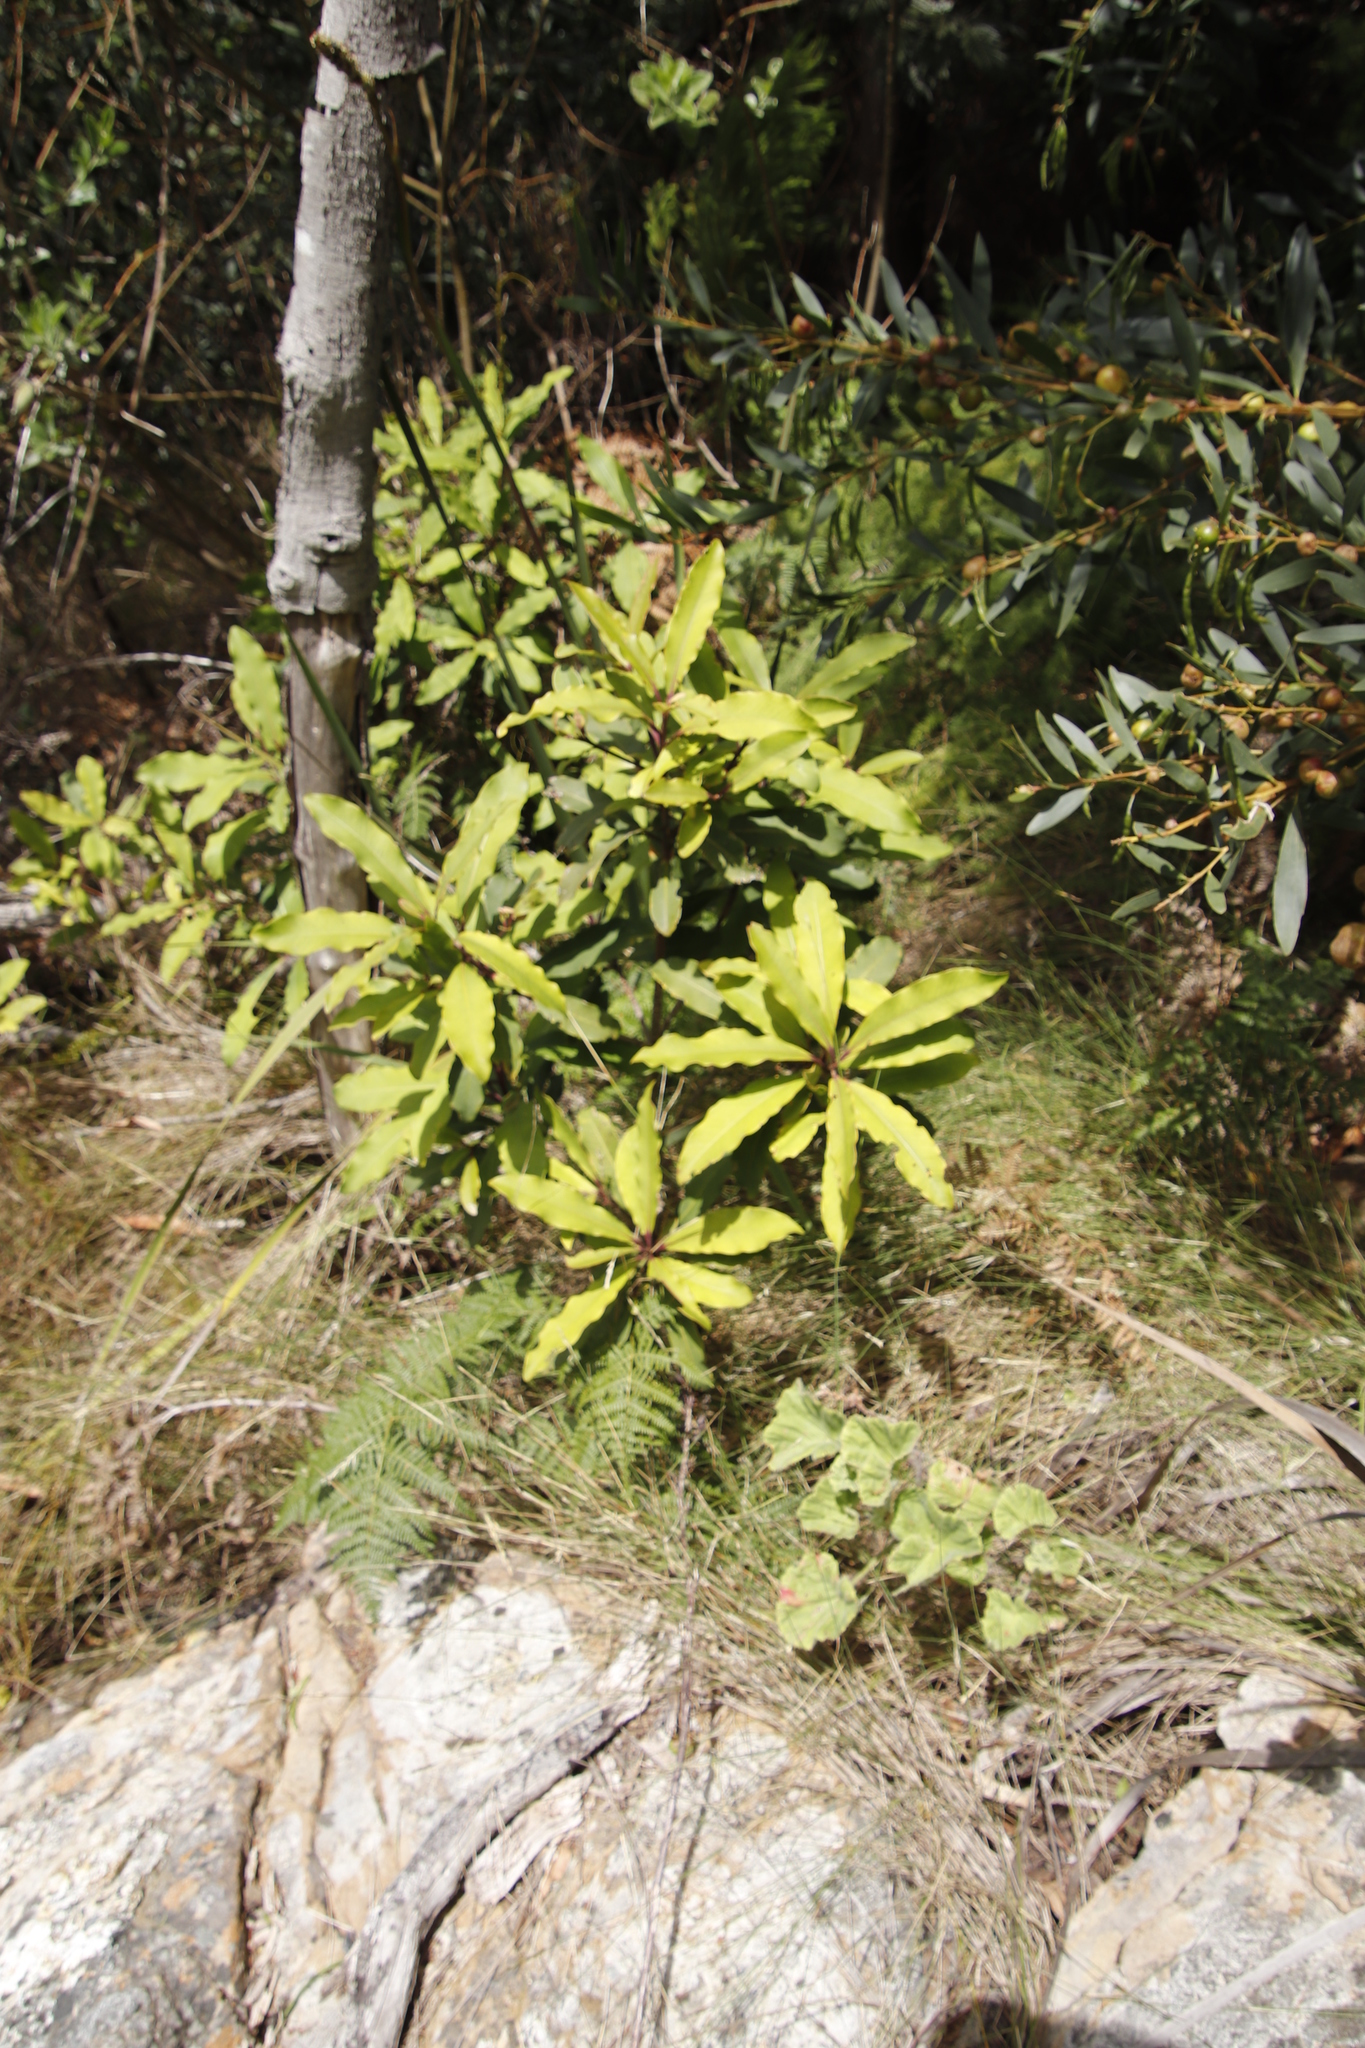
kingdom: Plantae
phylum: Tracheophyta
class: Magnoliopsida
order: Ericales
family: Primulaceae
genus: Myrsine
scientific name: Myrsine melanophloeos
